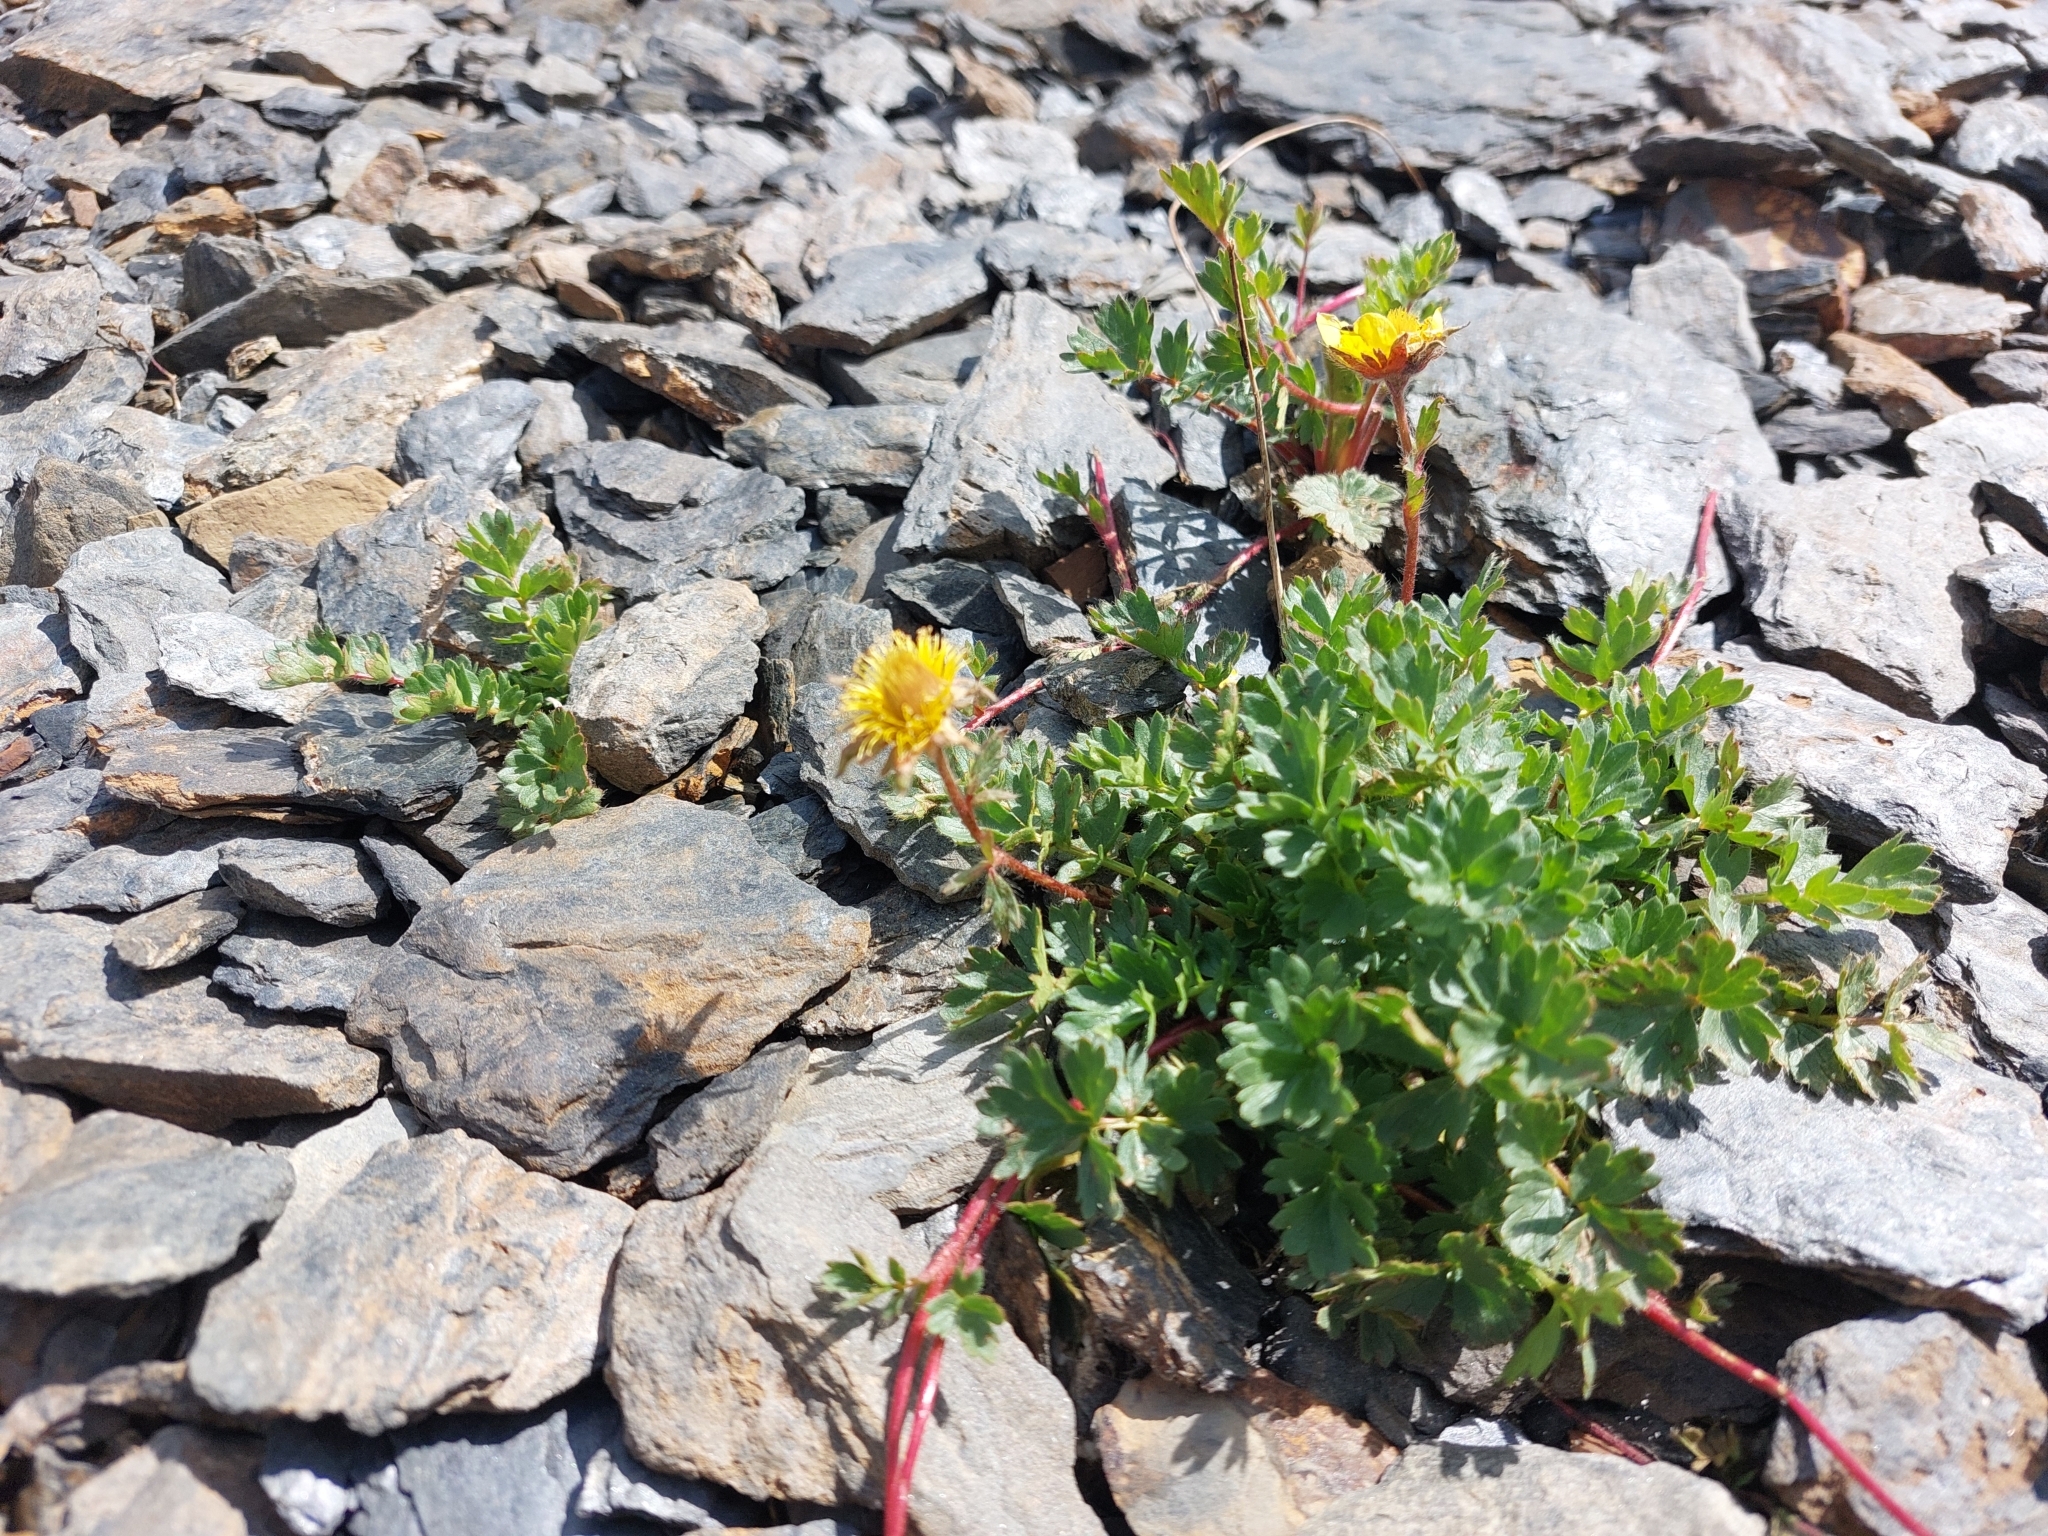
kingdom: Plantae
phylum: Tracheophyta
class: Magnoliopsida
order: Rosales
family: Rosaceae
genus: Geum
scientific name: Geum reptans
